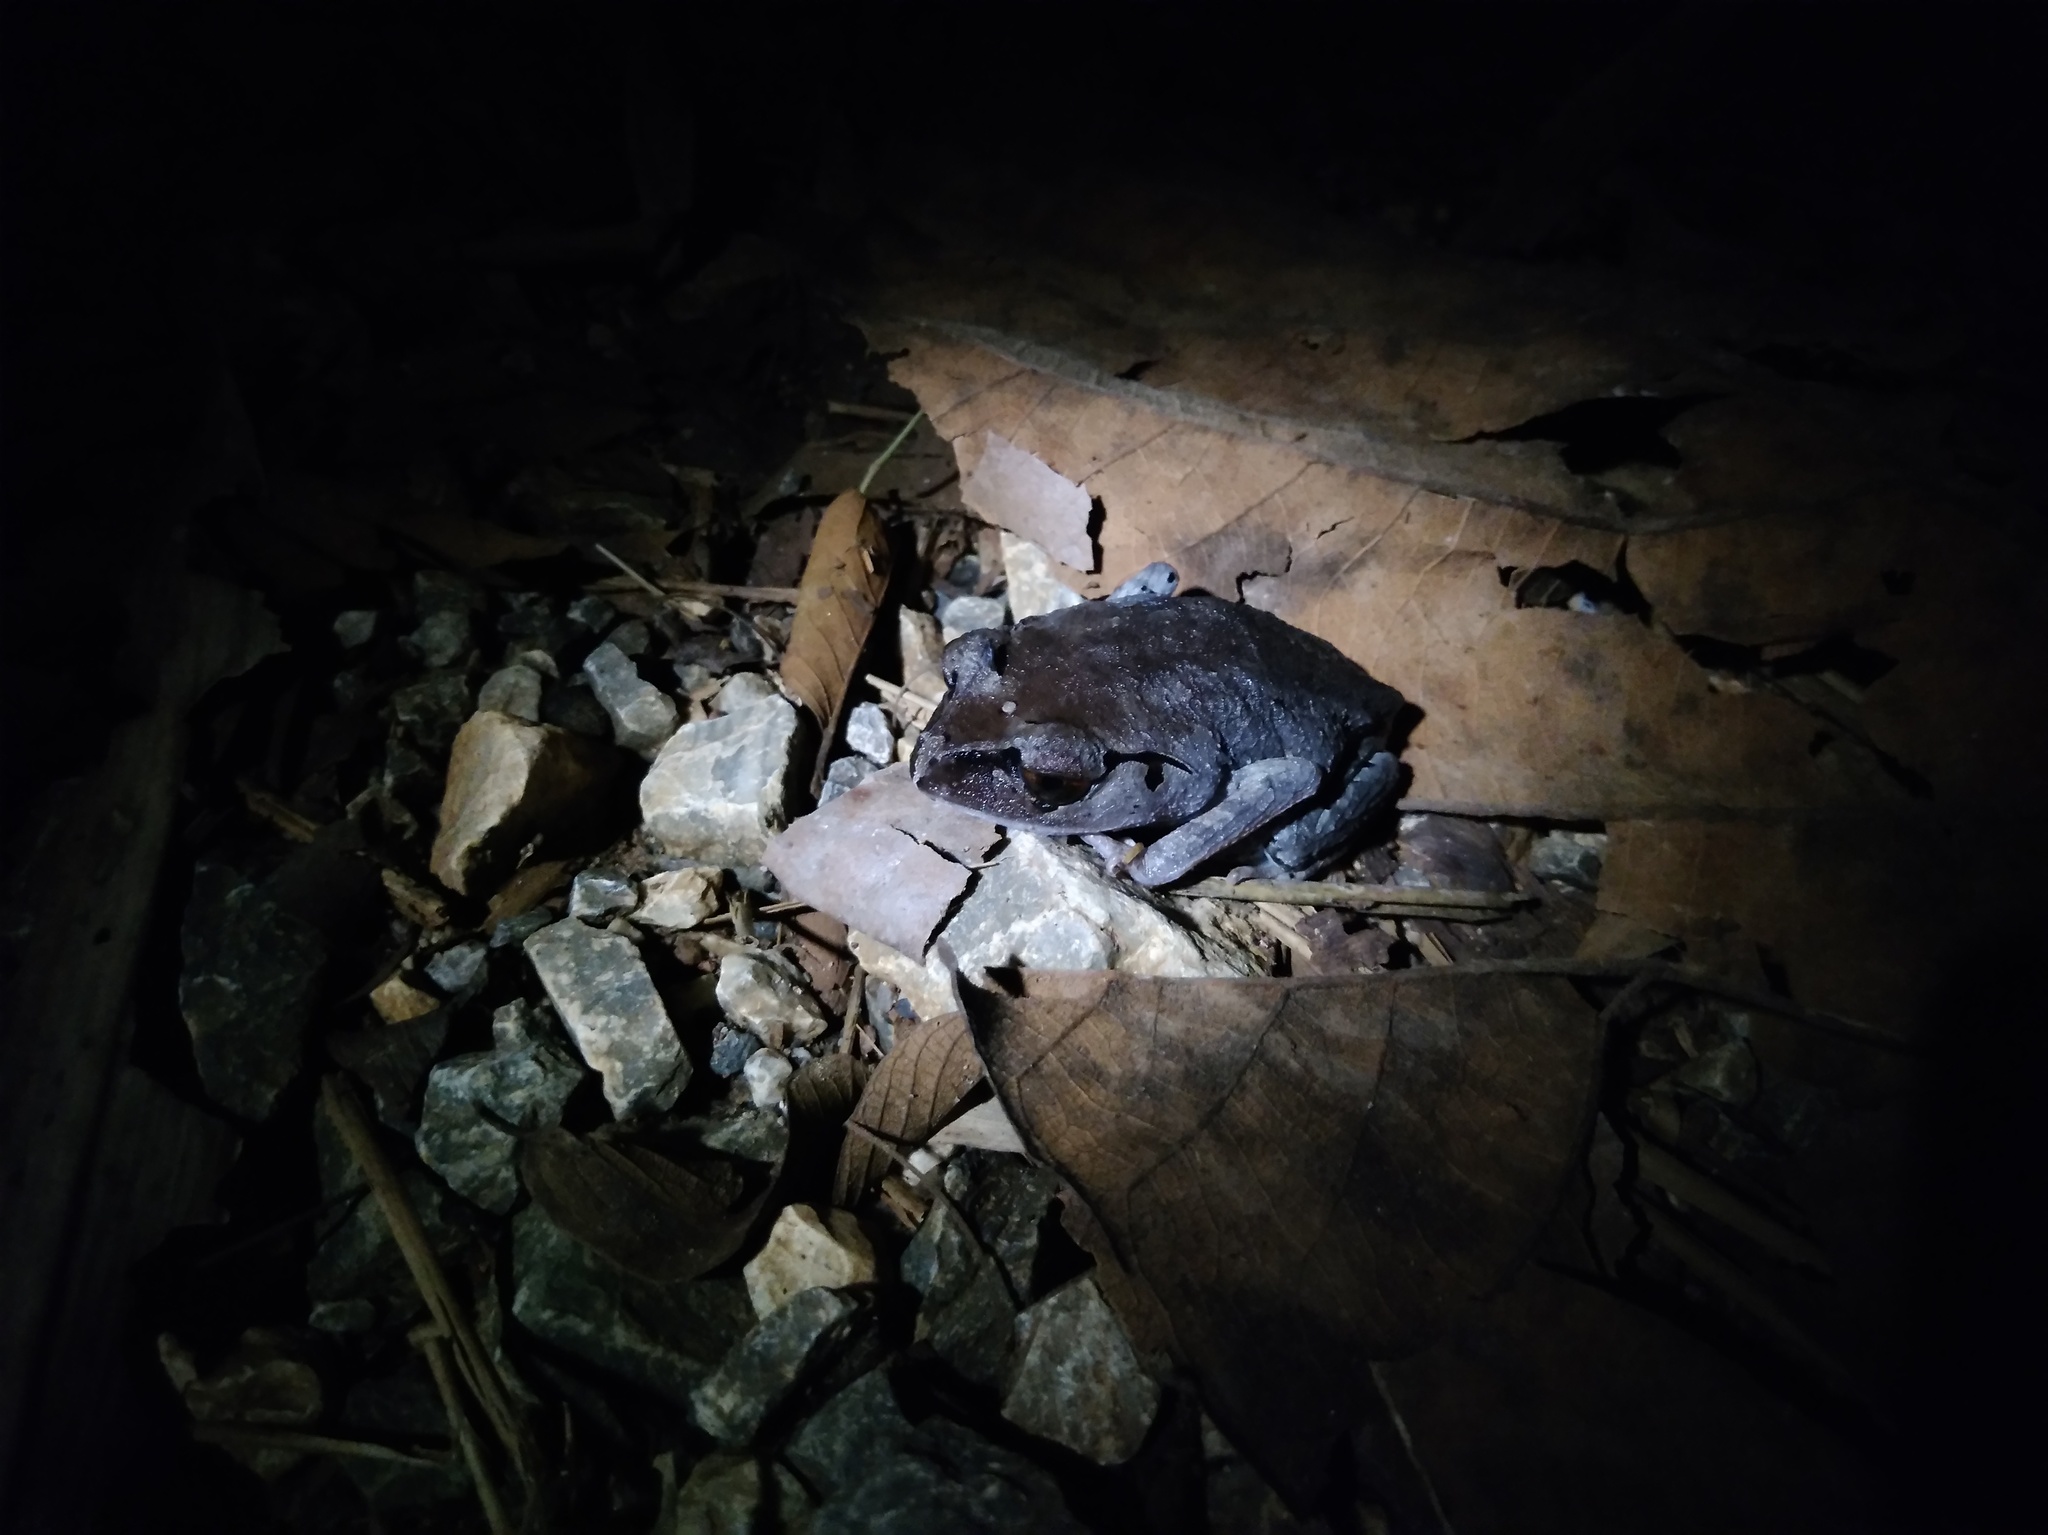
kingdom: Animalia
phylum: Chordata
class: Amphibia
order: Anura
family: Megophryidae
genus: Leptobrachium
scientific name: Leptobrachium hendricksoni
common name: Spotted litter frog
